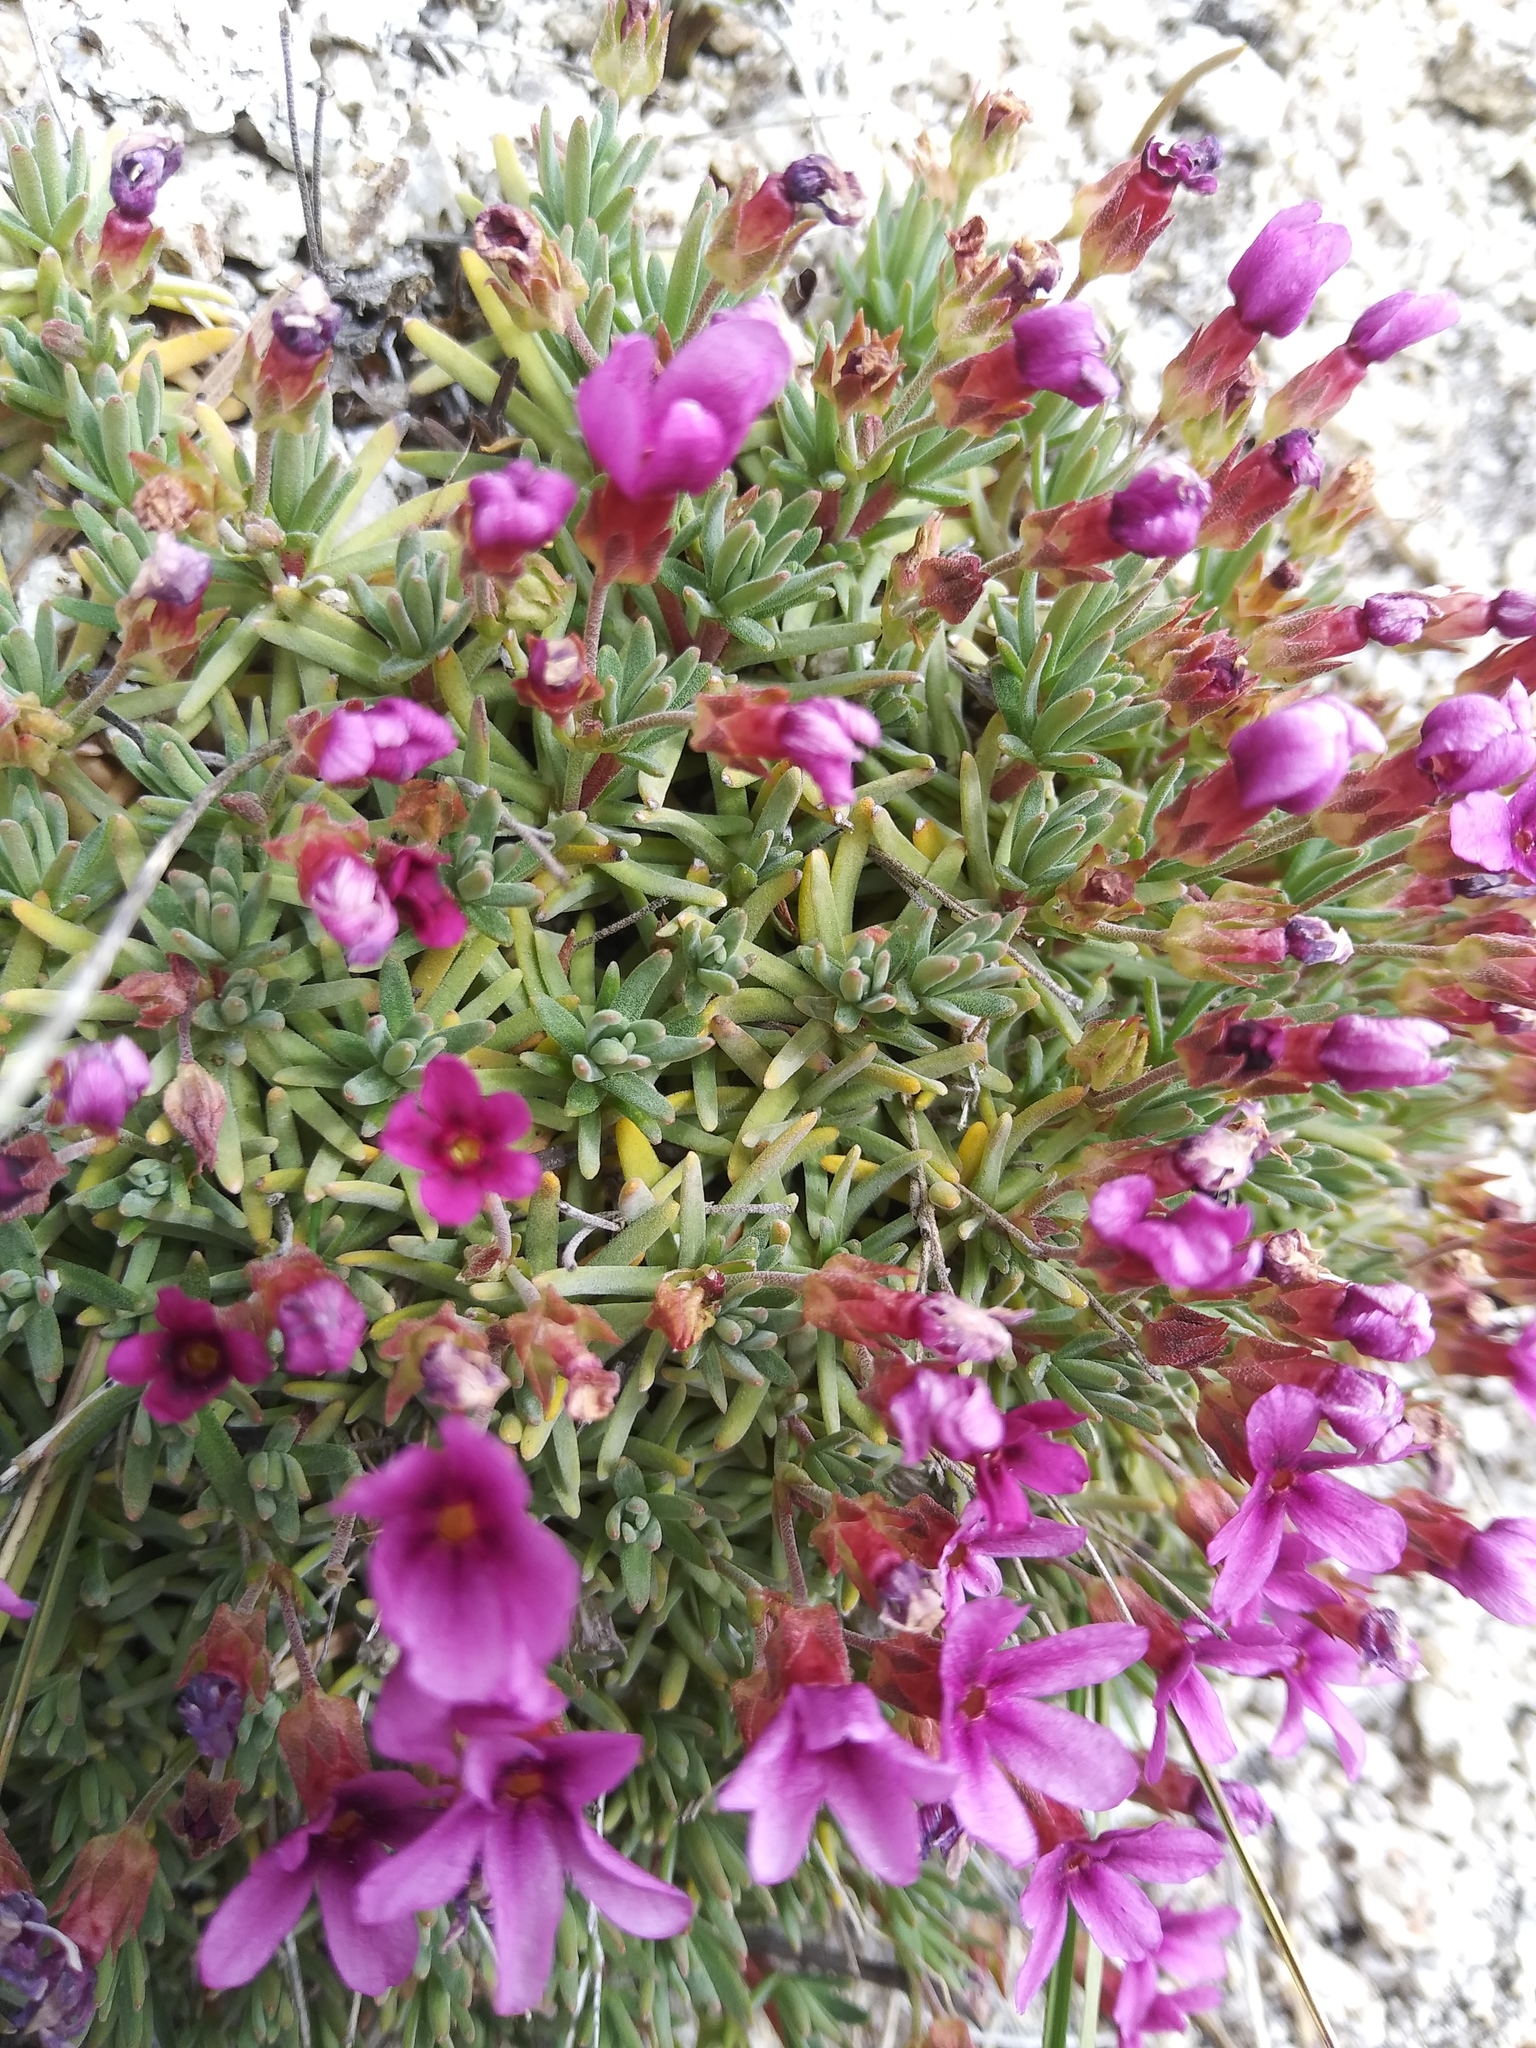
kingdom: Plantae
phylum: Tracheophyta
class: Magnoliopsida
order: Ericales
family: Primulaceae
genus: Androsace
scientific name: Androsace nivalis
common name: Snow dwarf-primrose
